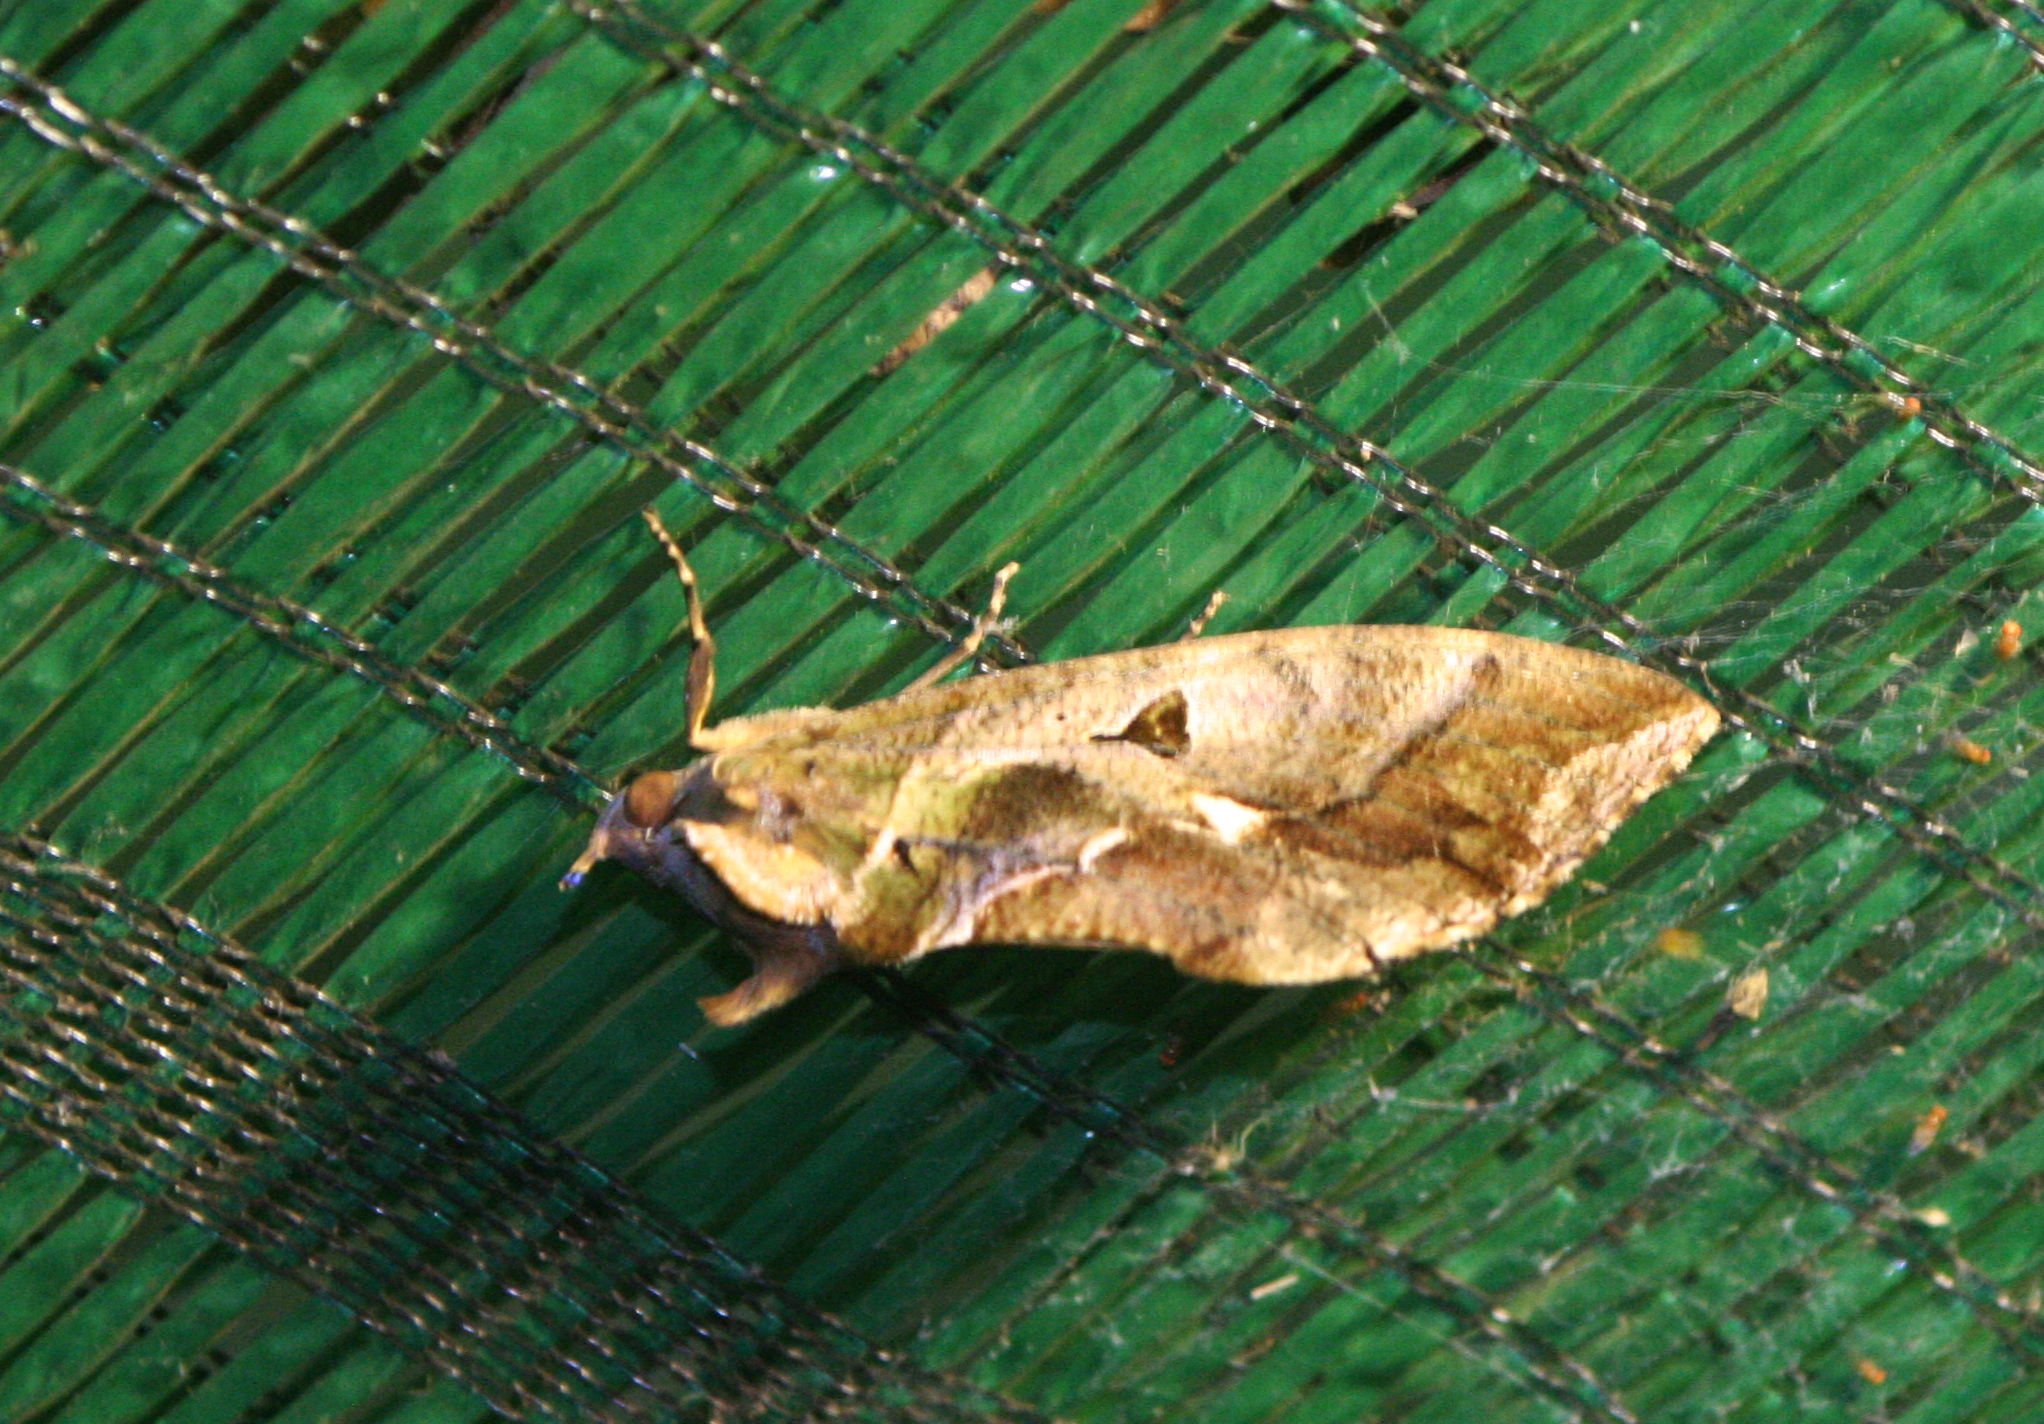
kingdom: Animalia
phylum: Arthropoda
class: Insecta
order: Lepidoptera
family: Erebidae
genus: Eudocima
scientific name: Eudocima phalonia
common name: Wasp
